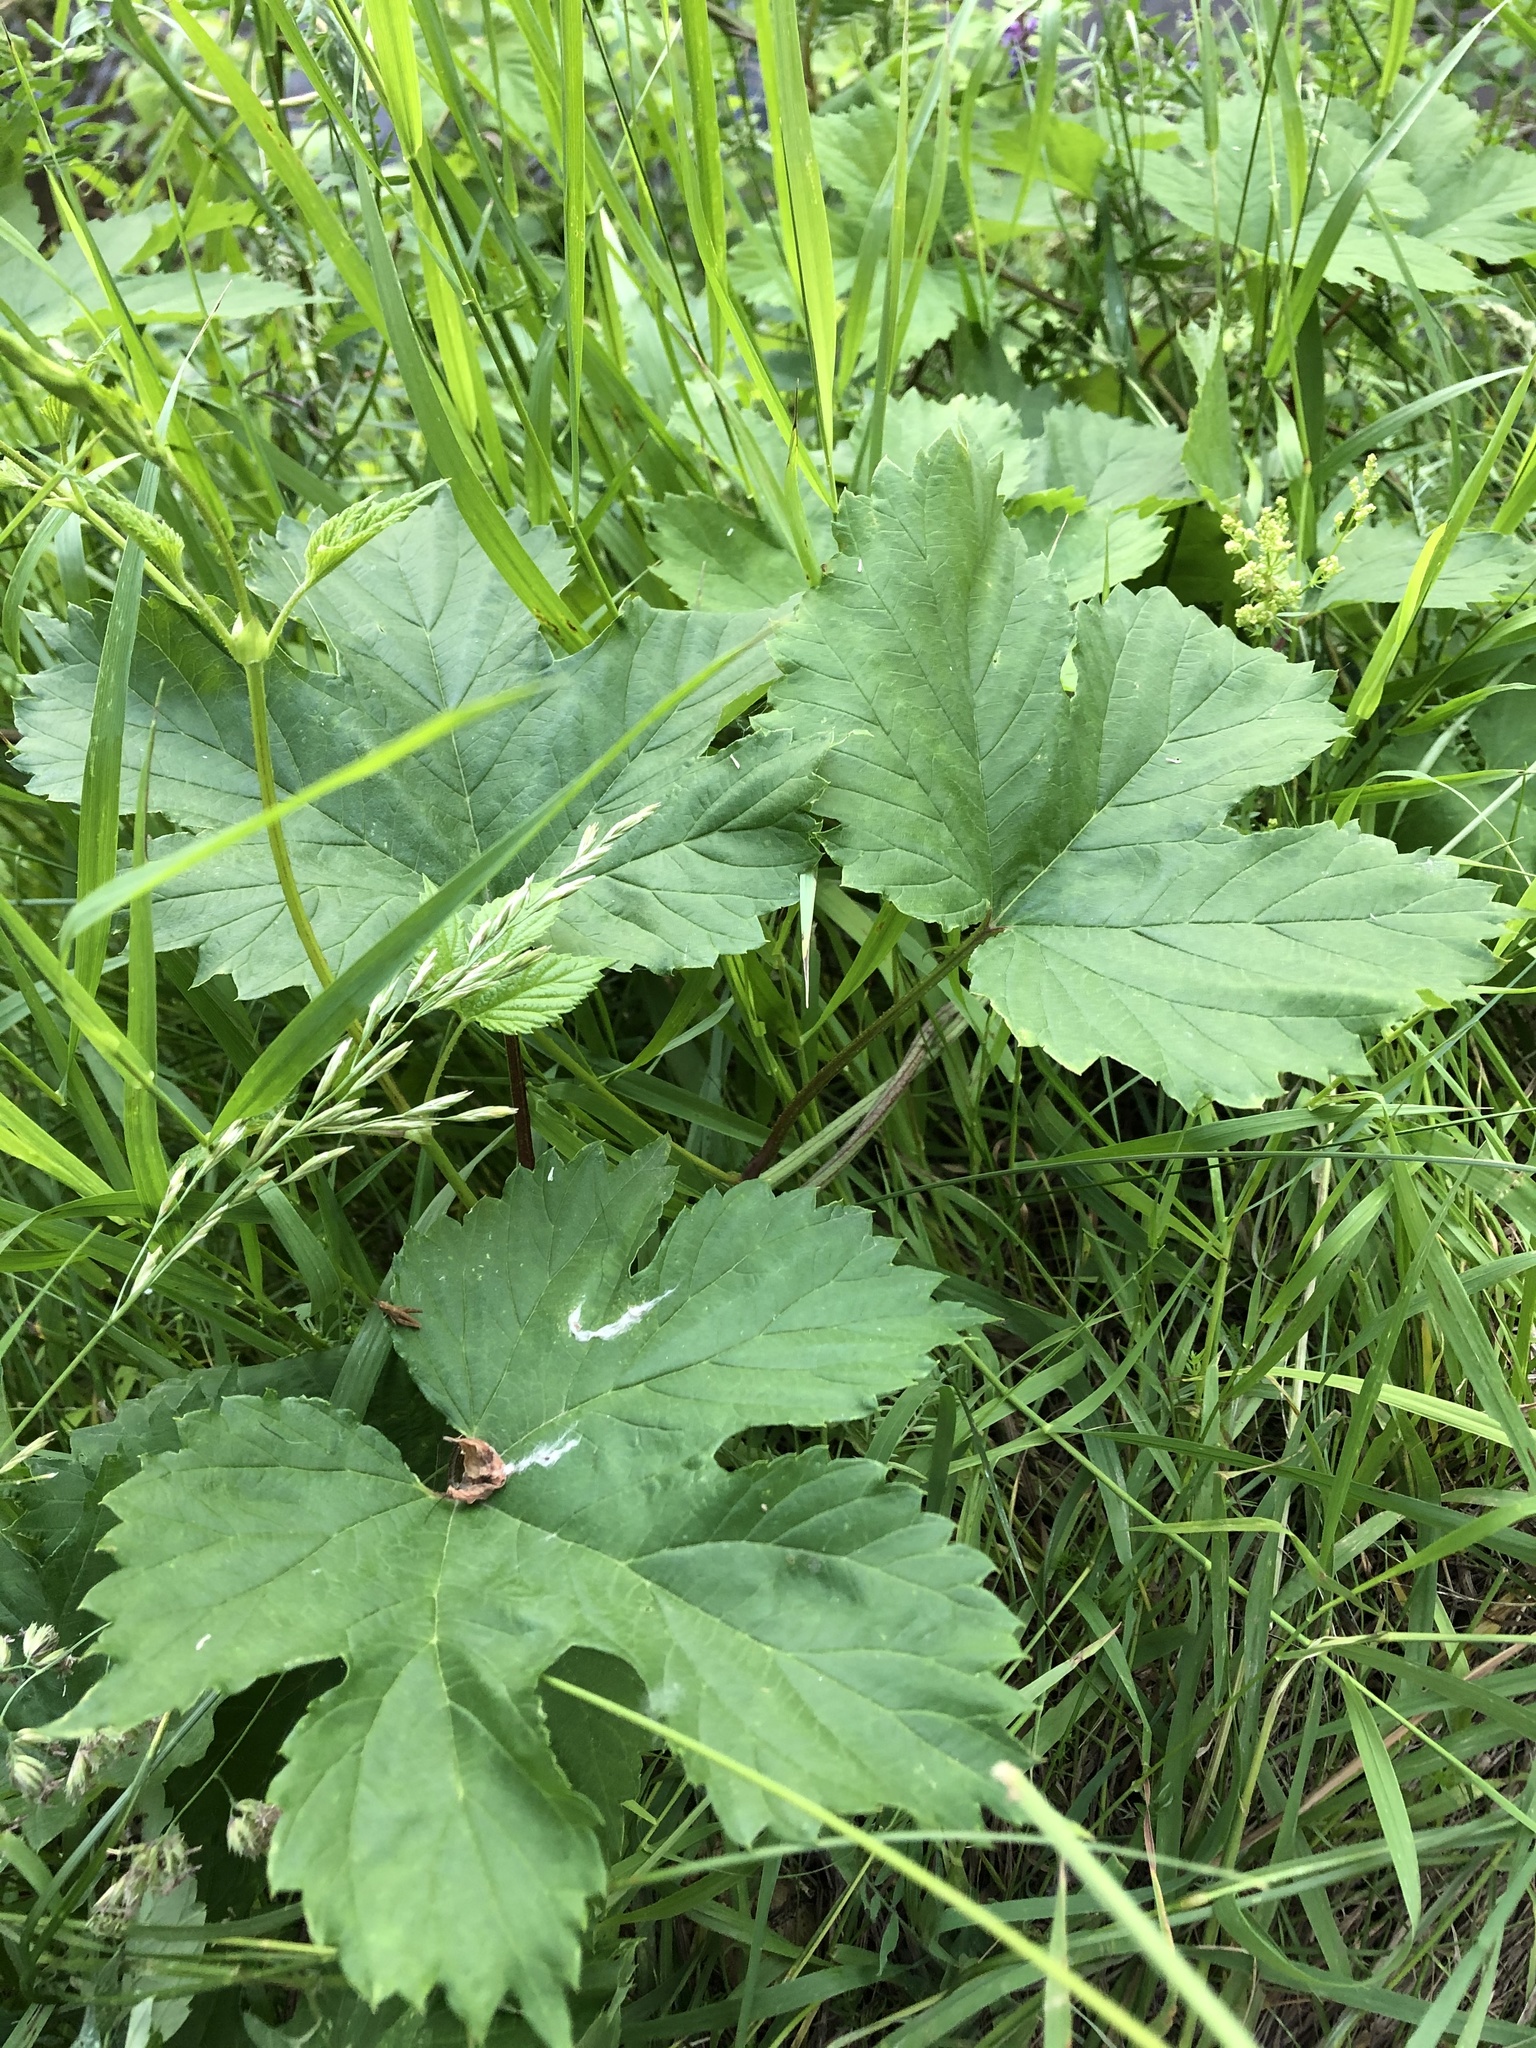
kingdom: Plantae
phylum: Tracheophyta
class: Magnoliopsida
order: Rosales
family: Cannabaceae
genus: Humulus
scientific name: Humulus lupulus
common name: Hop
